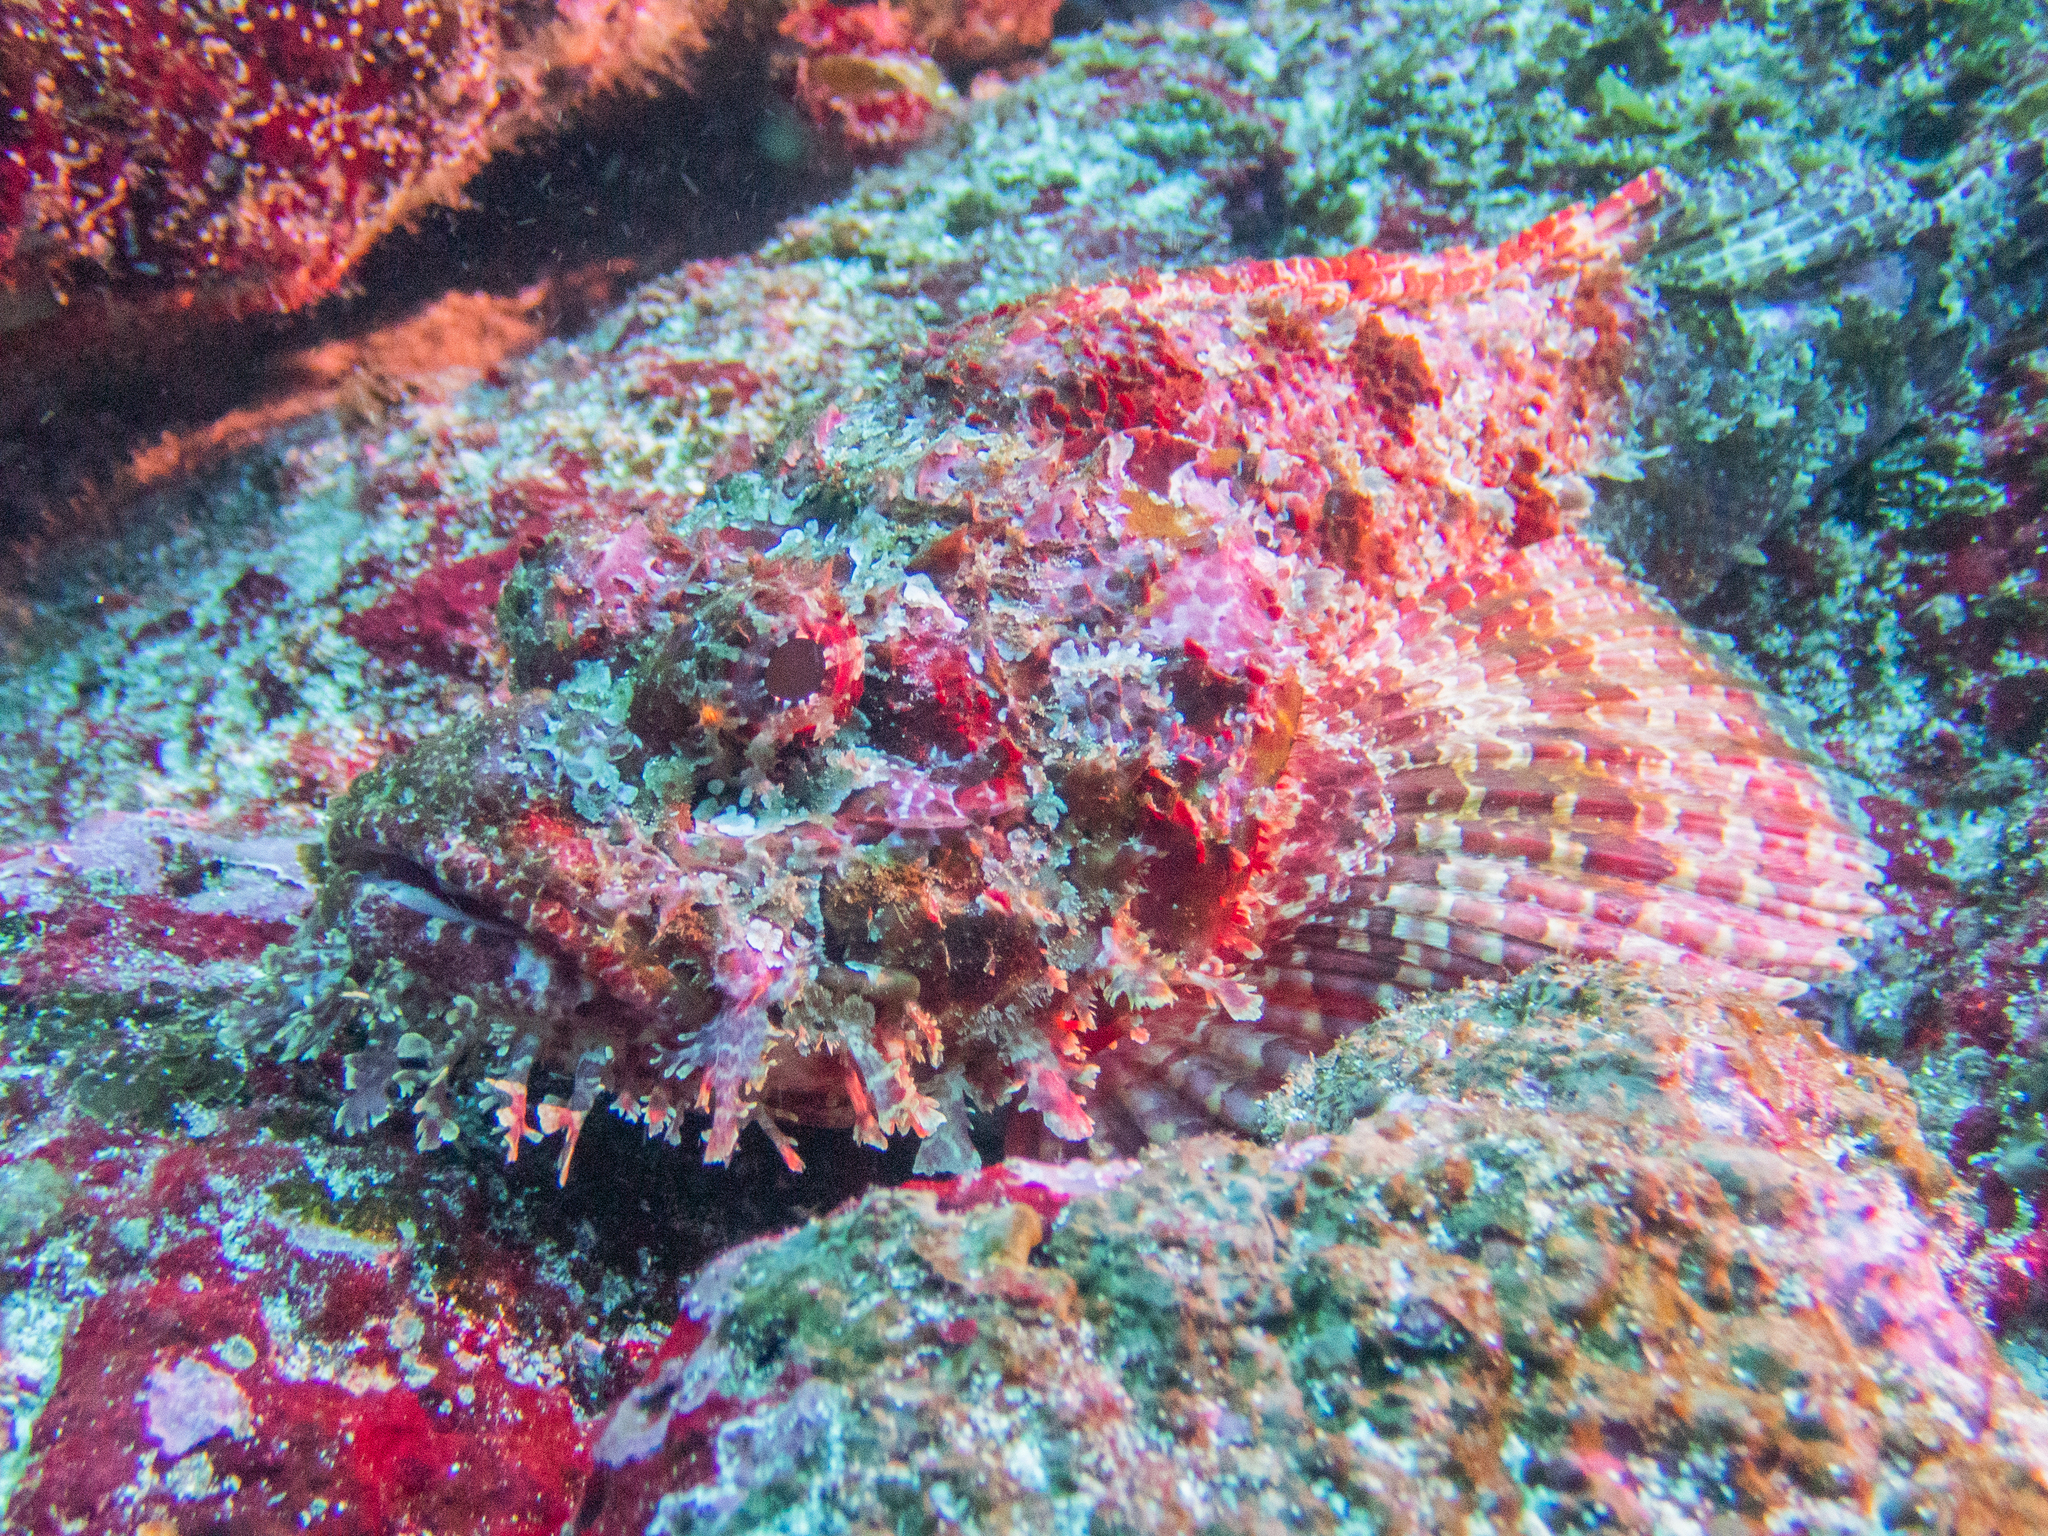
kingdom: Animalia
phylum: Chordata
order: Scorpaeniformes
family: Scorpaenidae
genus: Scorpaena
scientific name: Scorpaena mystes
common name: Pacific spotted scorpionfish
